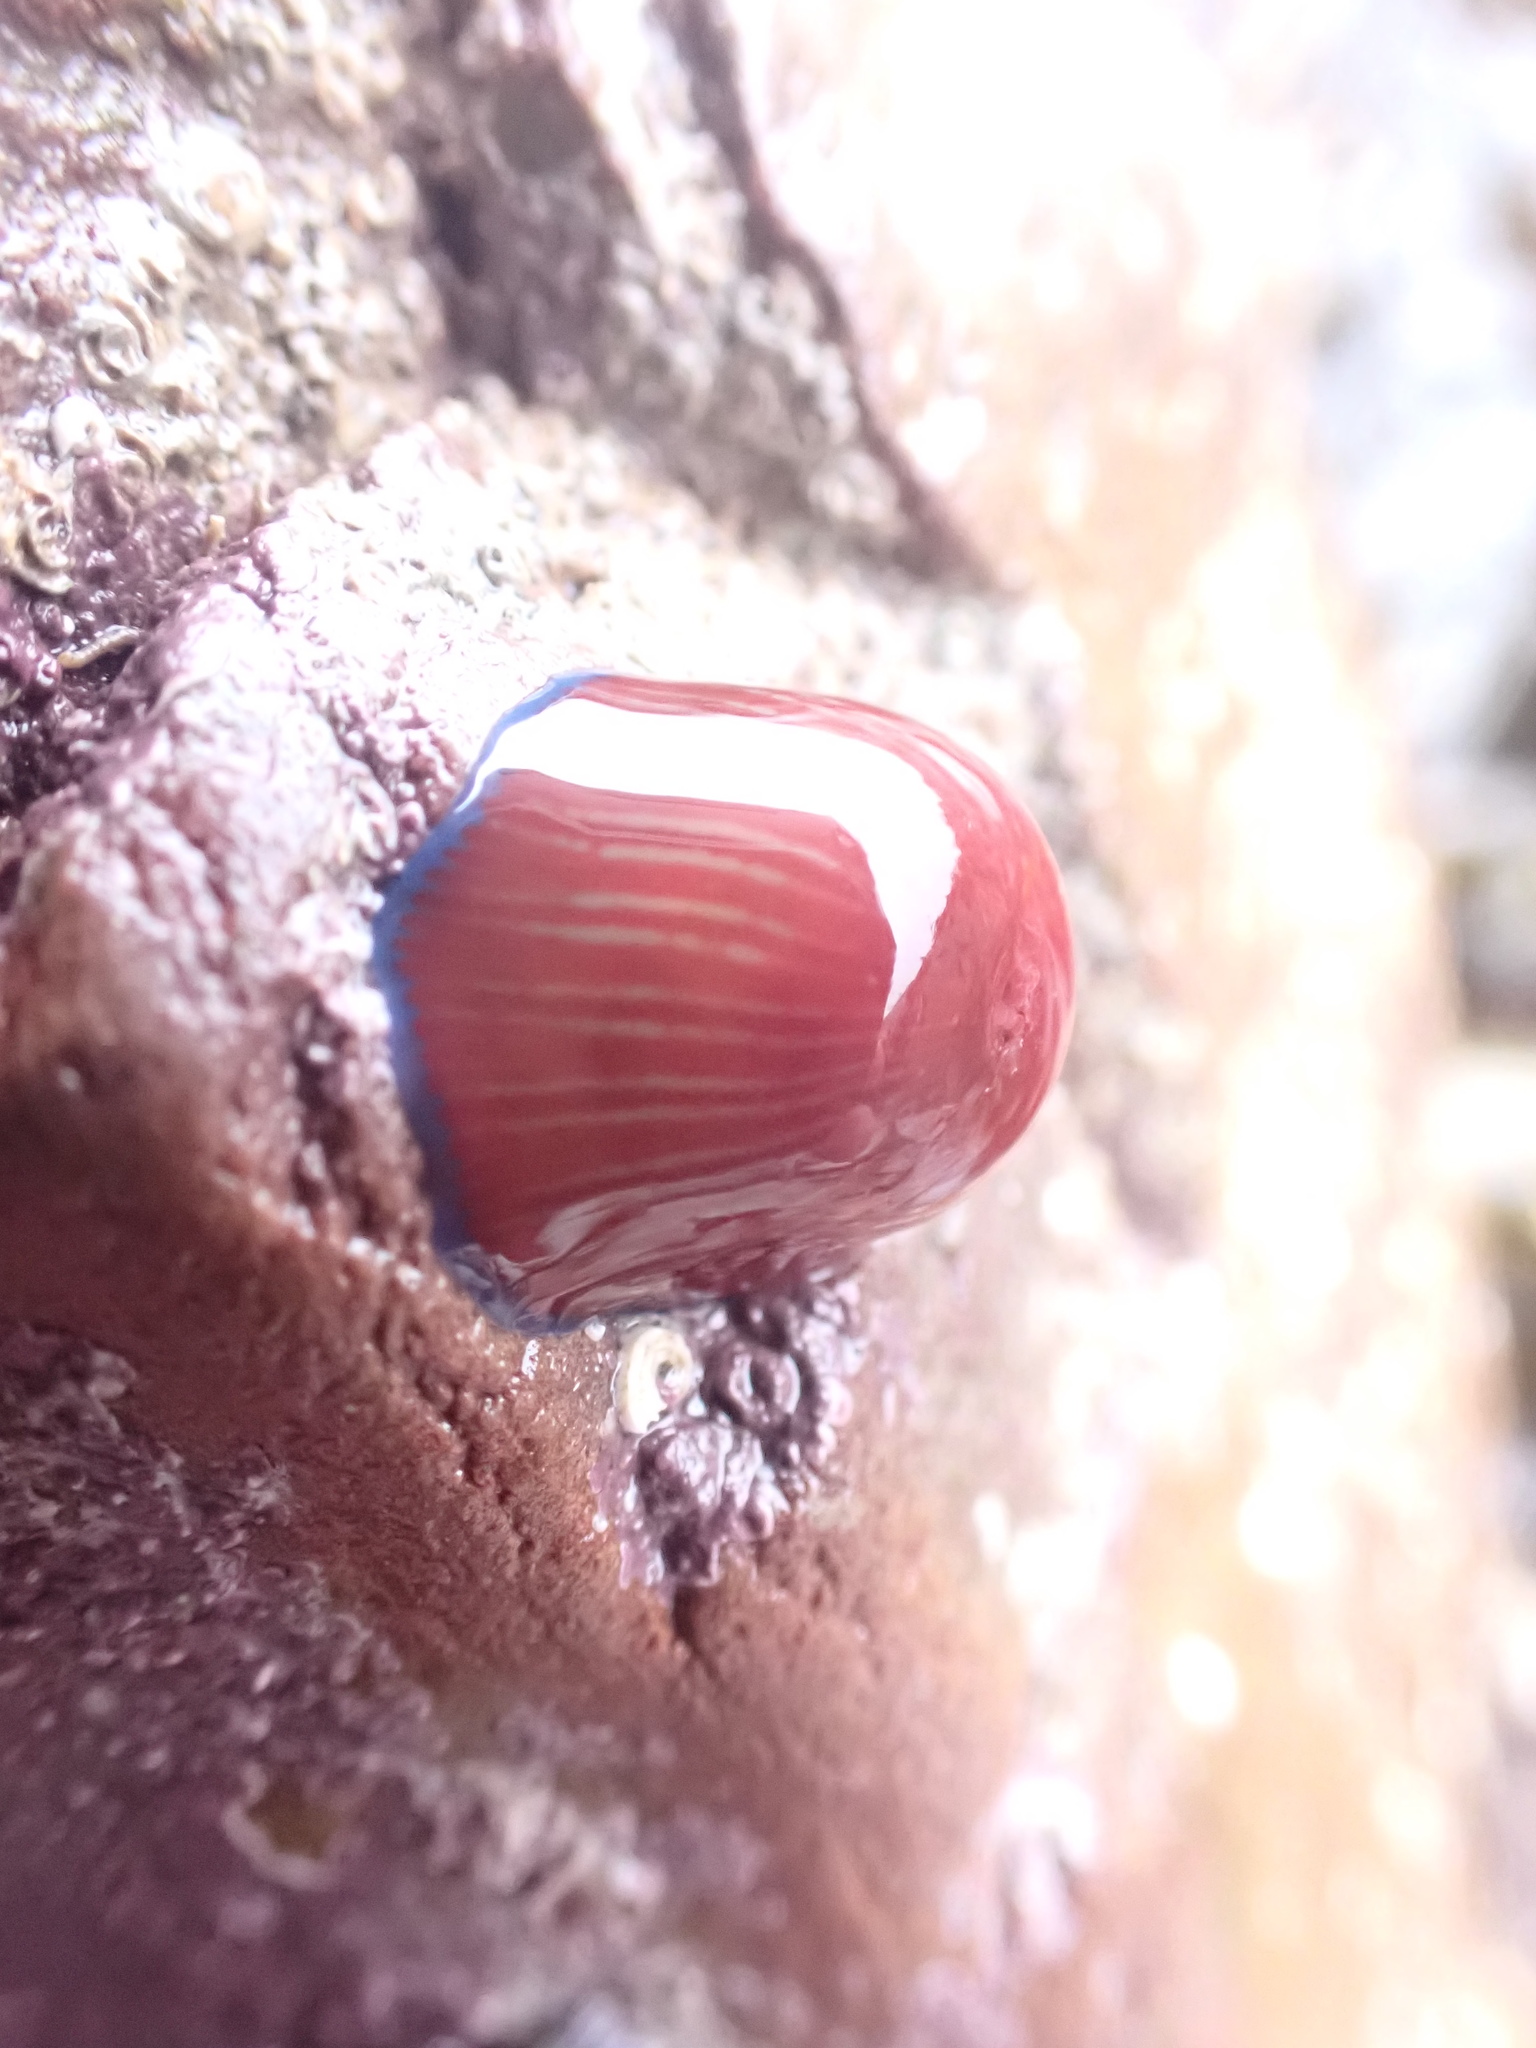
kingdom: Animalia
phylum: Cnidaria
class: Anthozoa
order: Actiniaria
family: Actiniidae
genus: Actinia
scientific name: Actinia equina
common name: Beadlet anemone
